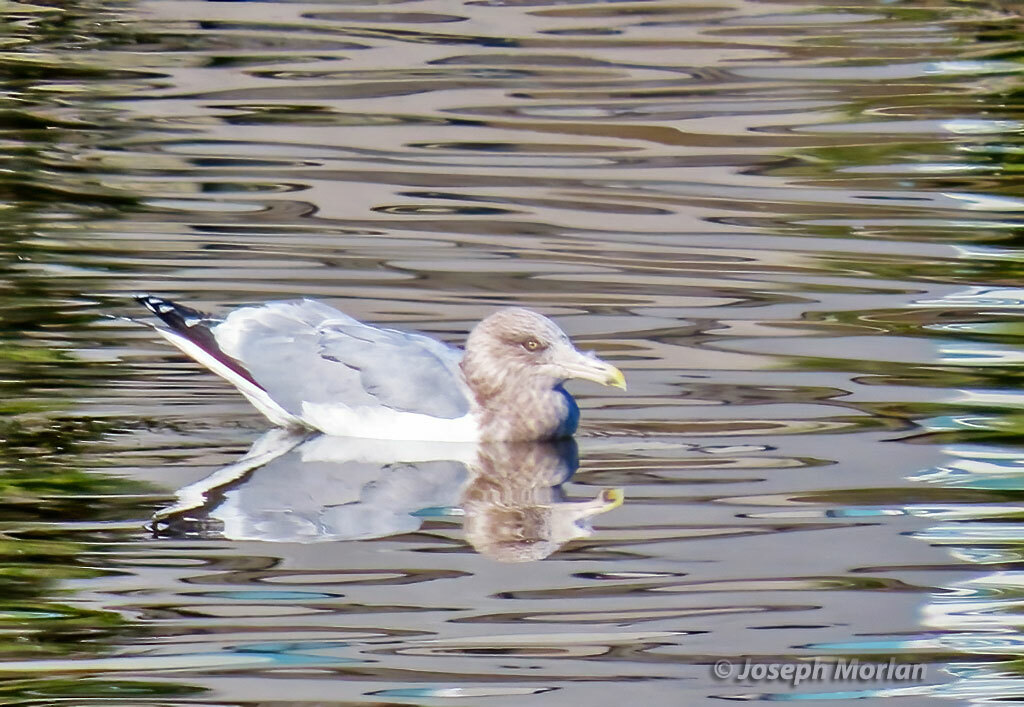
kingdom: Animalia
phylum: Chordata
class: Aves
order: Charadriiformes
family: Laridae
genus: Larus
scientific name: Larus argentatus
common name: Herring gull
